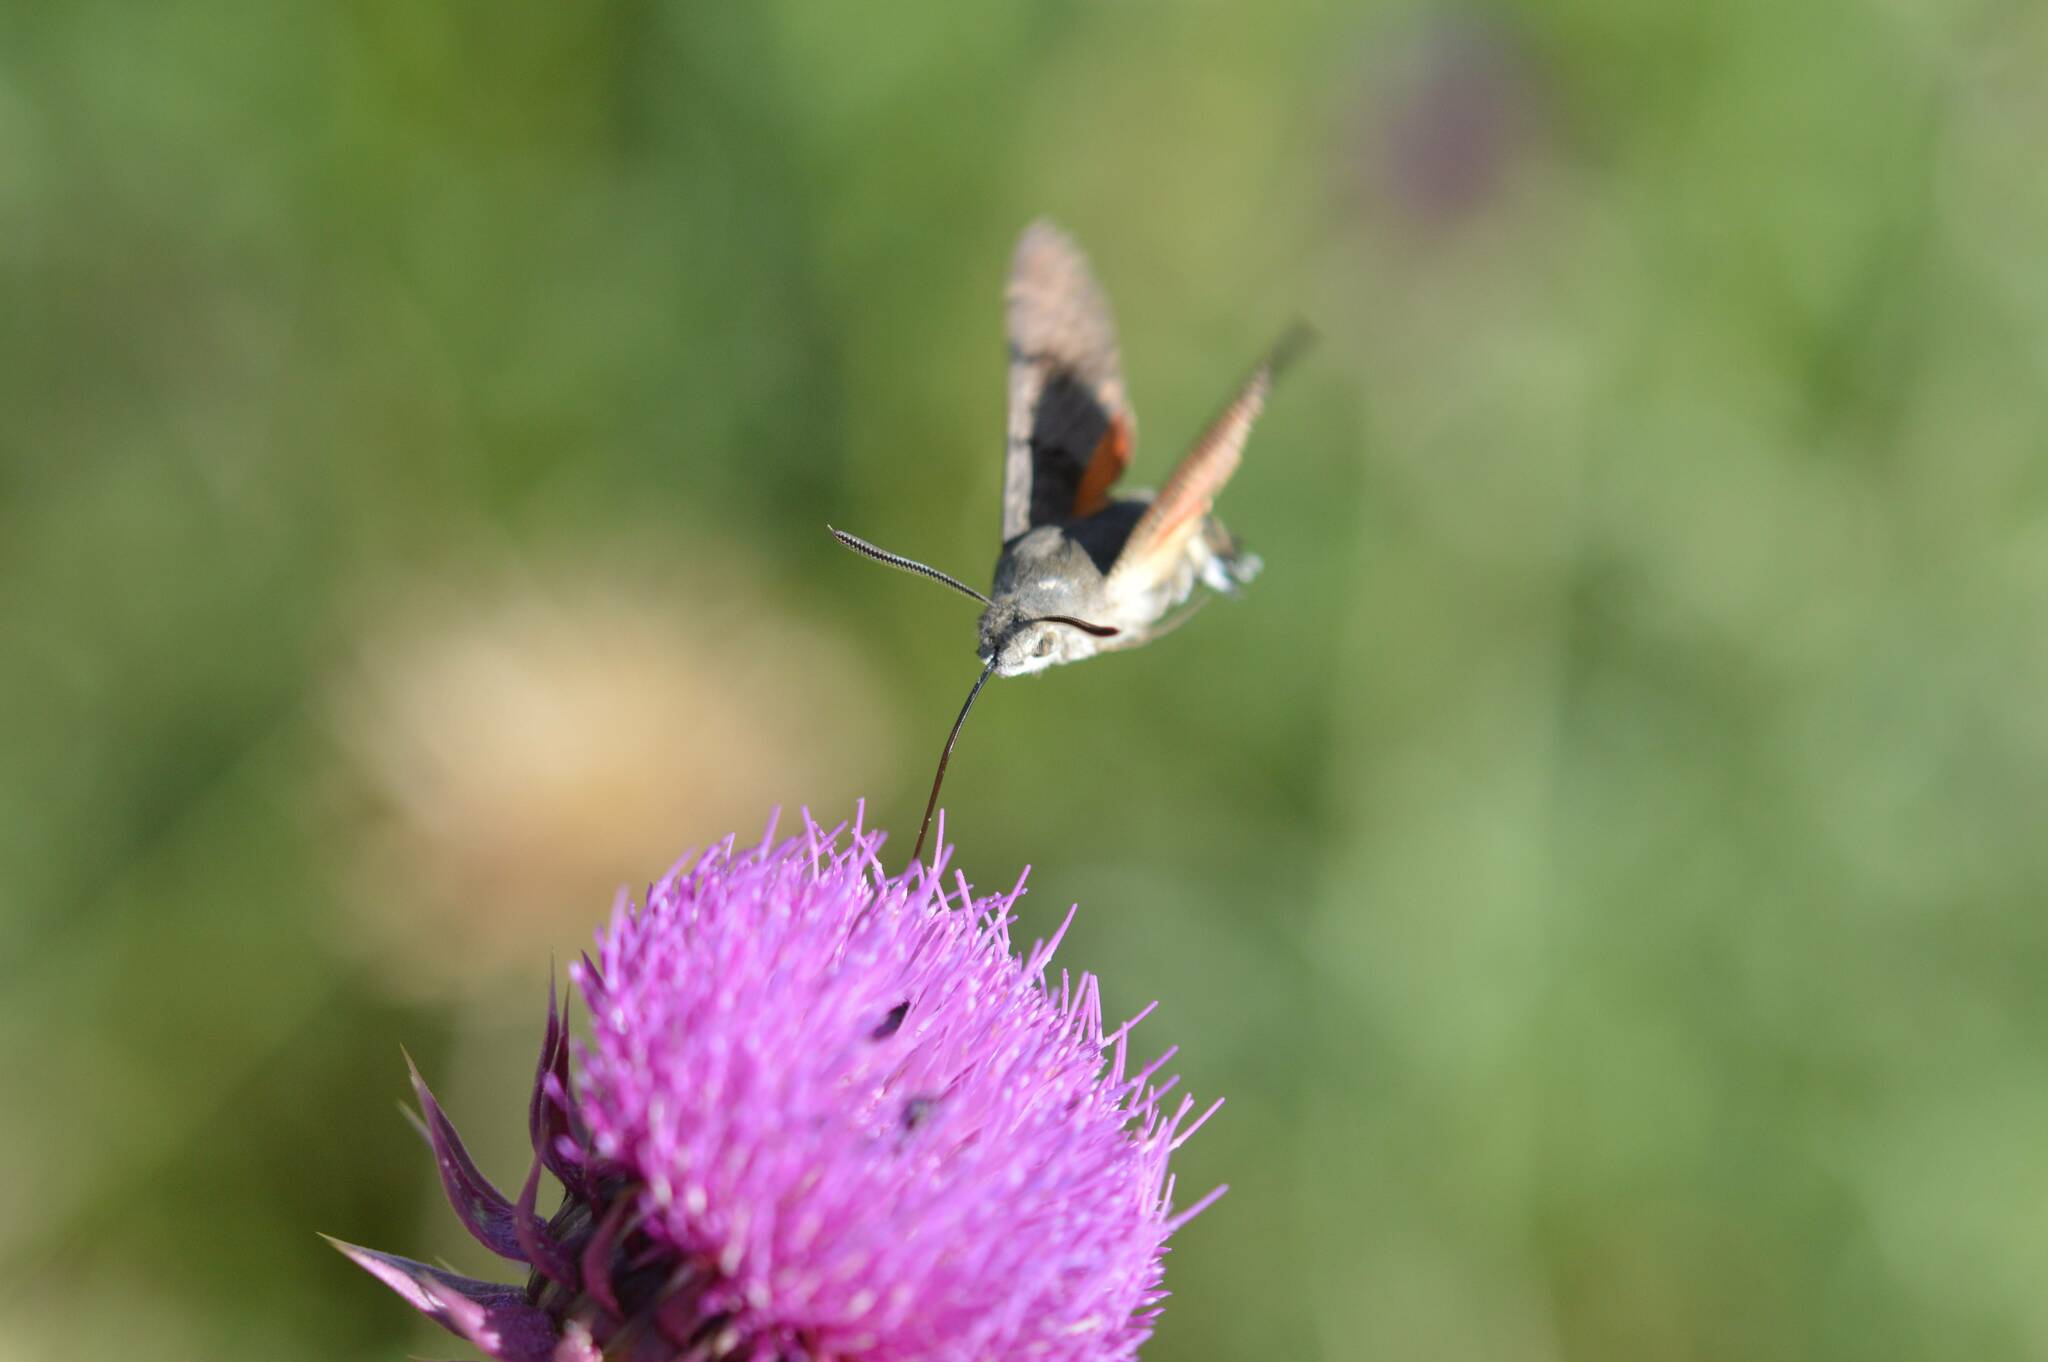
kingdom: Animalia
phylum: Arthropoda
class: Insecta
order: Lepidoptera
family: Sphingidae
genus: Macroglossum
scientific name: Macroglossum stellatarum
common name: Humming-bird hawk-moth
